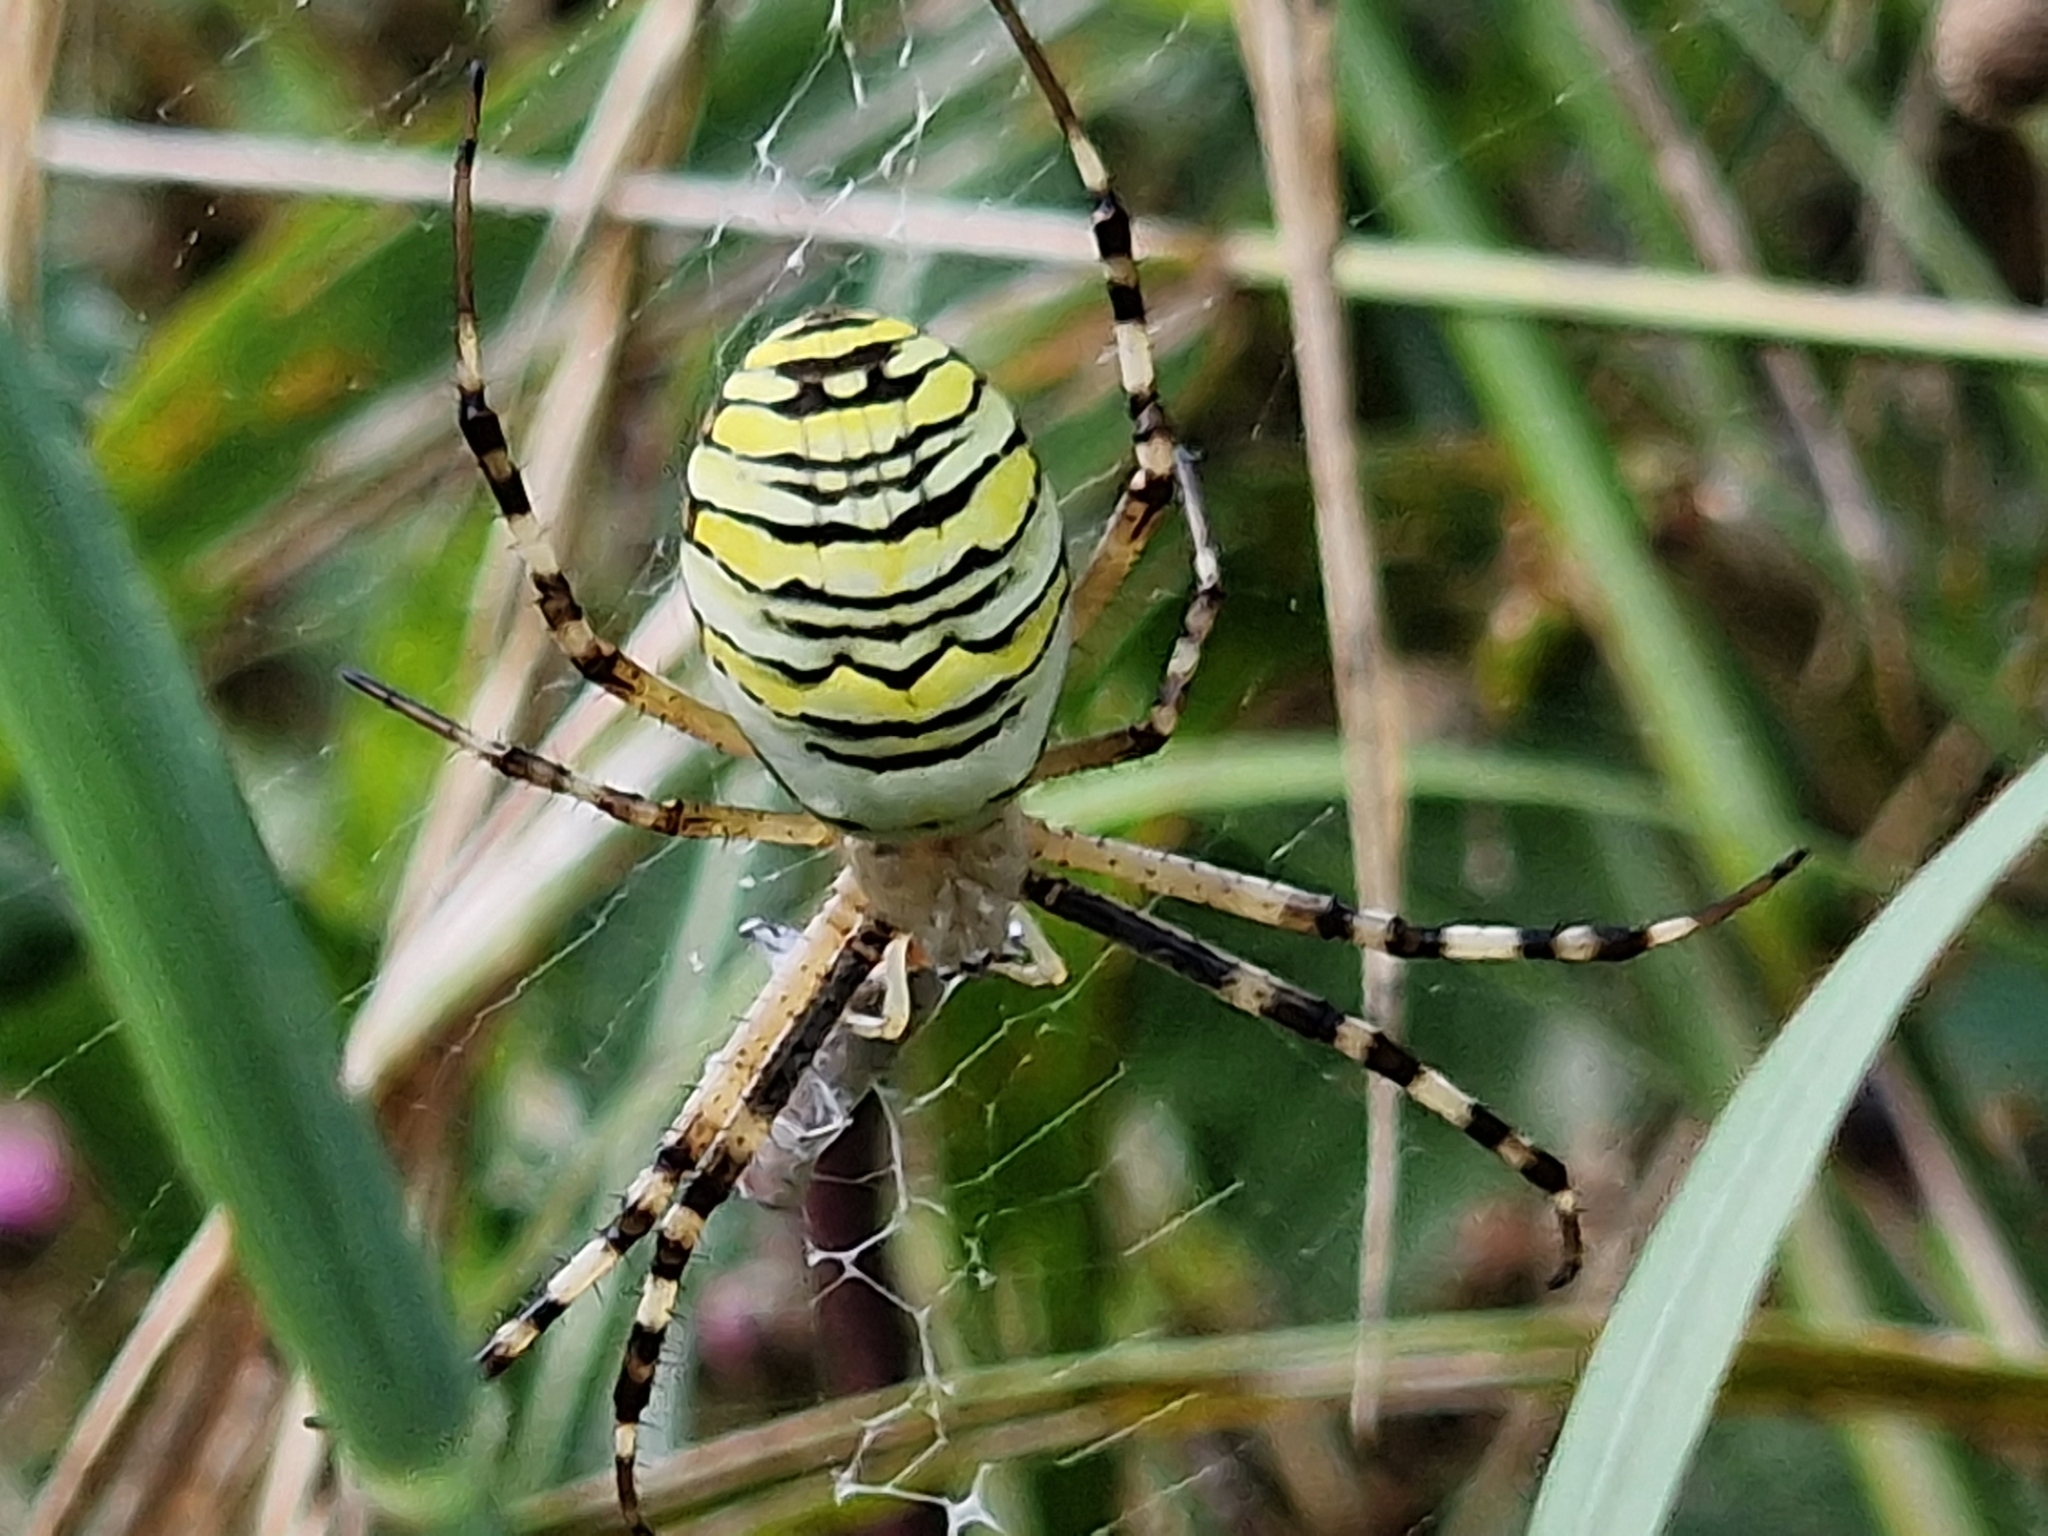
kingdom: Animalia
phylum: Arthropoda
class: Arachnida
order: Araneae
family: Araneidae
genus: Argiope
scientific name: Argiope bruennichi
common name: Wasp spider
